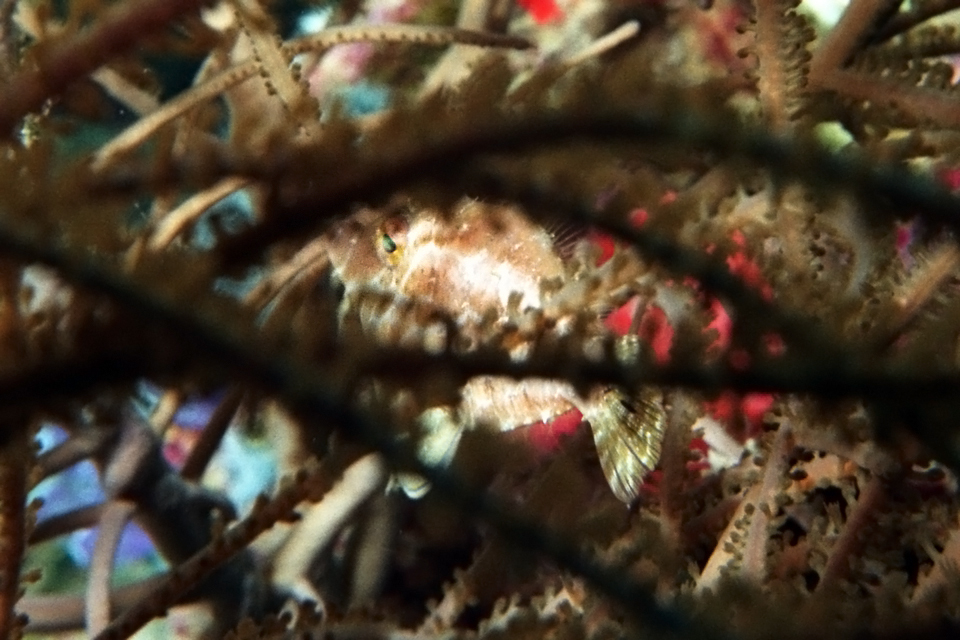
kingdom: Animalia
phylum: Chordata
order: Tetraodontiformes
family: Monacanthidae
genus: Stephanolepis
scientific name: Stephanolepis setifer
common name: Pygmy filefish
